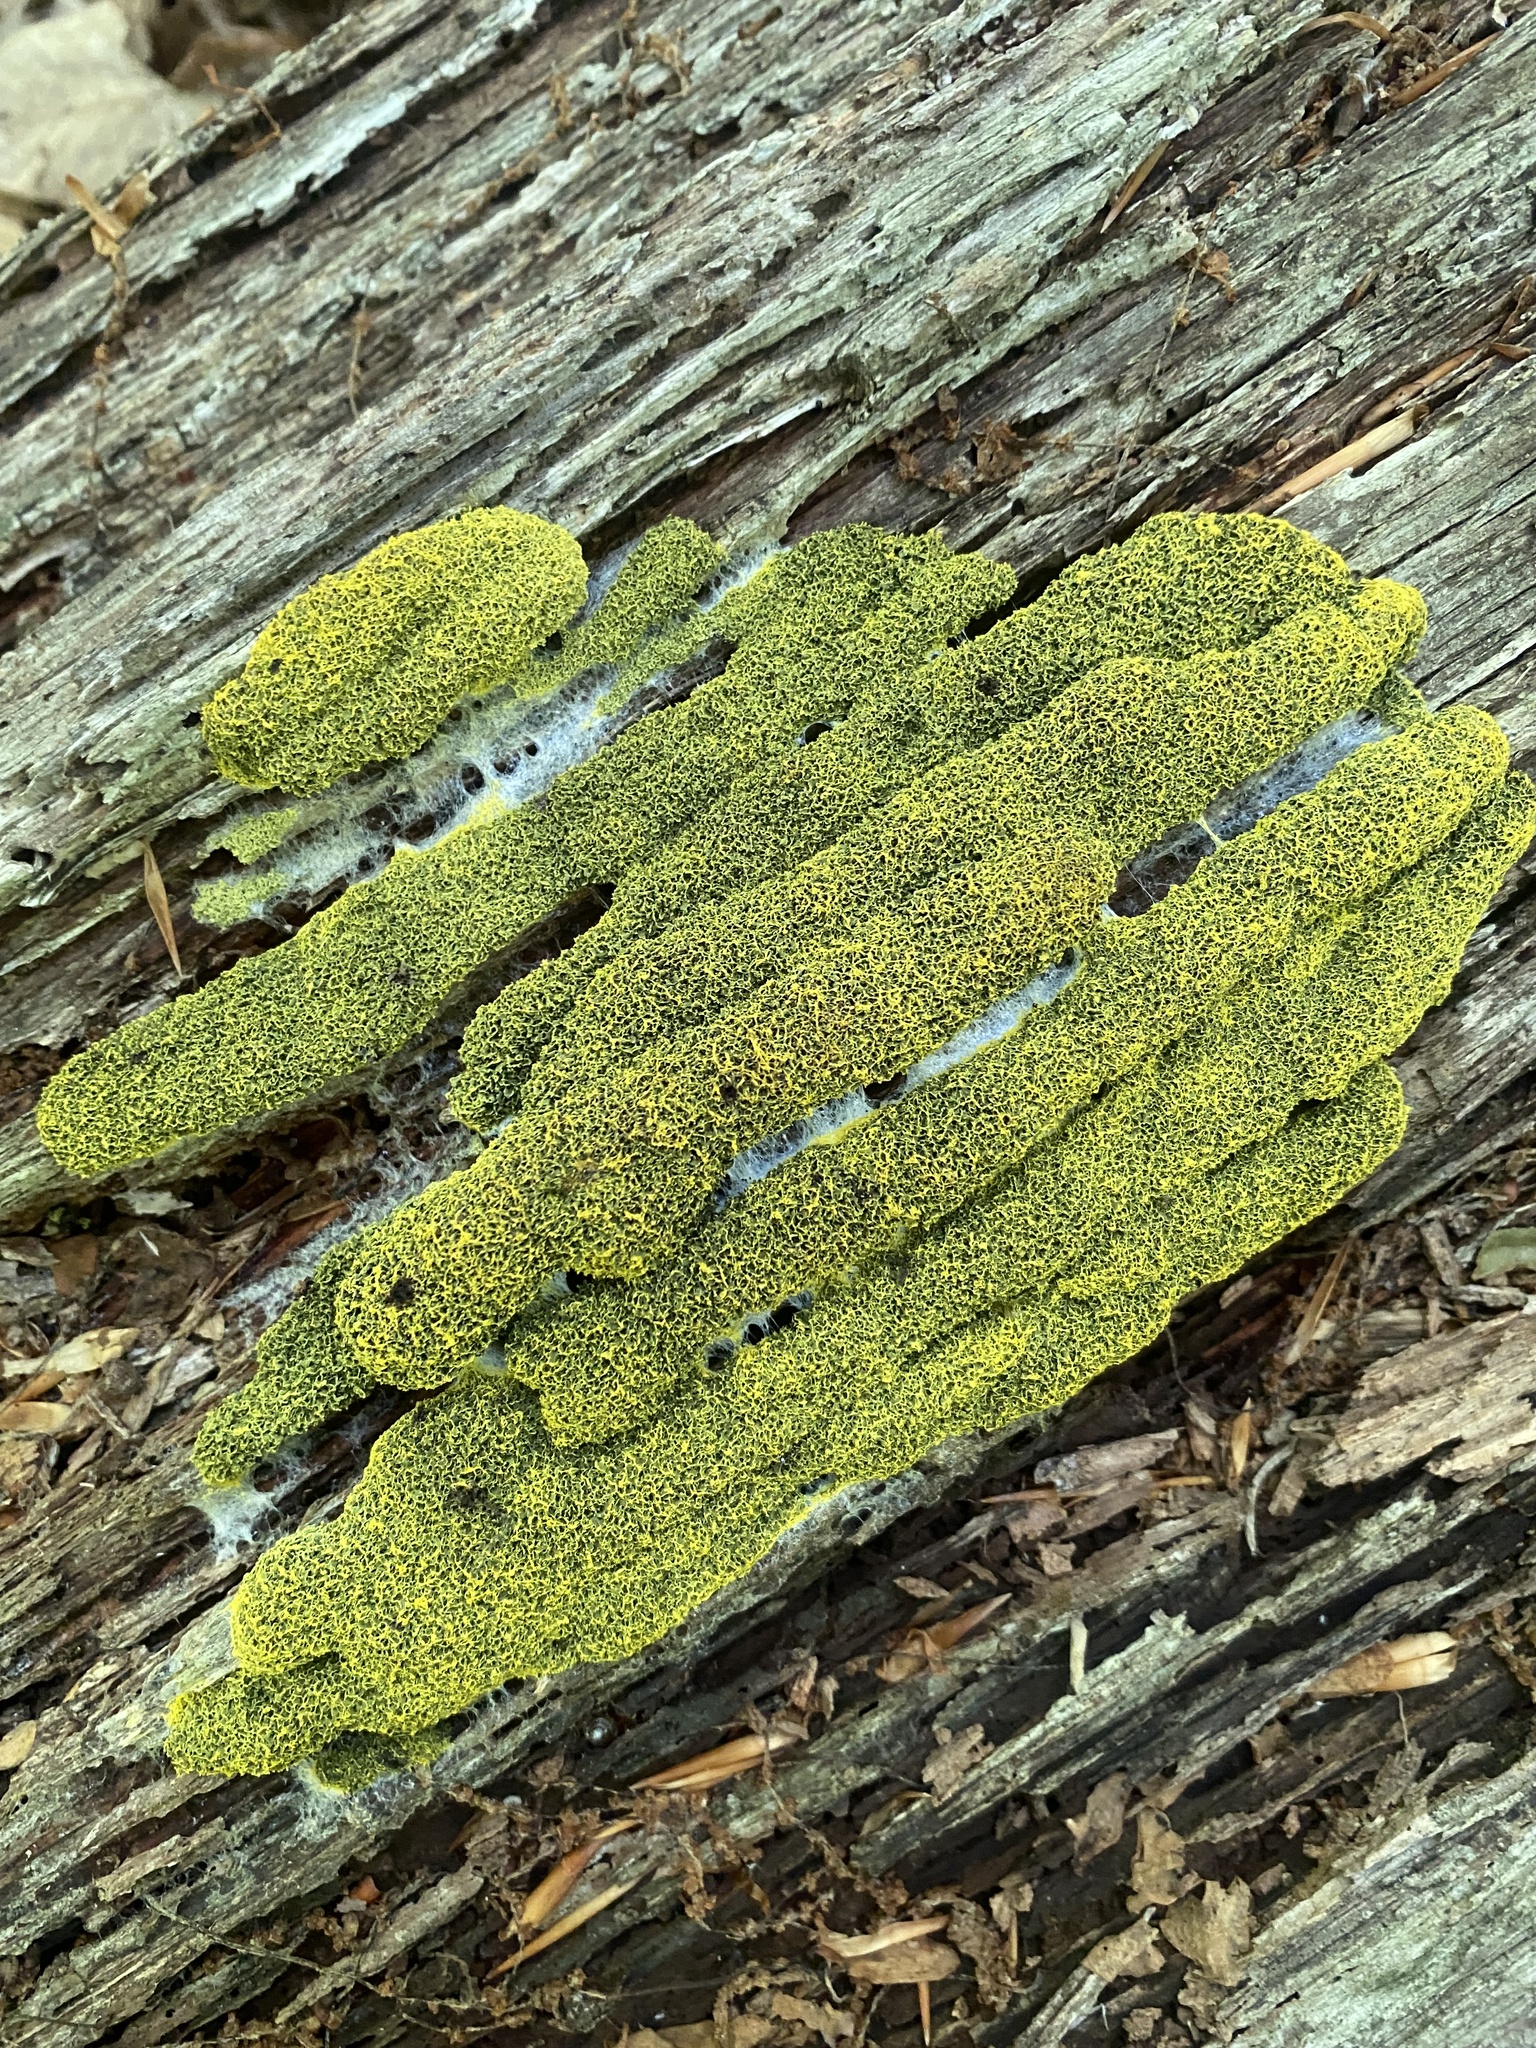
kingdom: Protozoa
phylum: Mycetozoa
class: Myxomycetes
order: Physarales
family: Physaraceae
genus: Fuligo
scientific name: Fuligo septica
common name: Dog vomit slime mold
